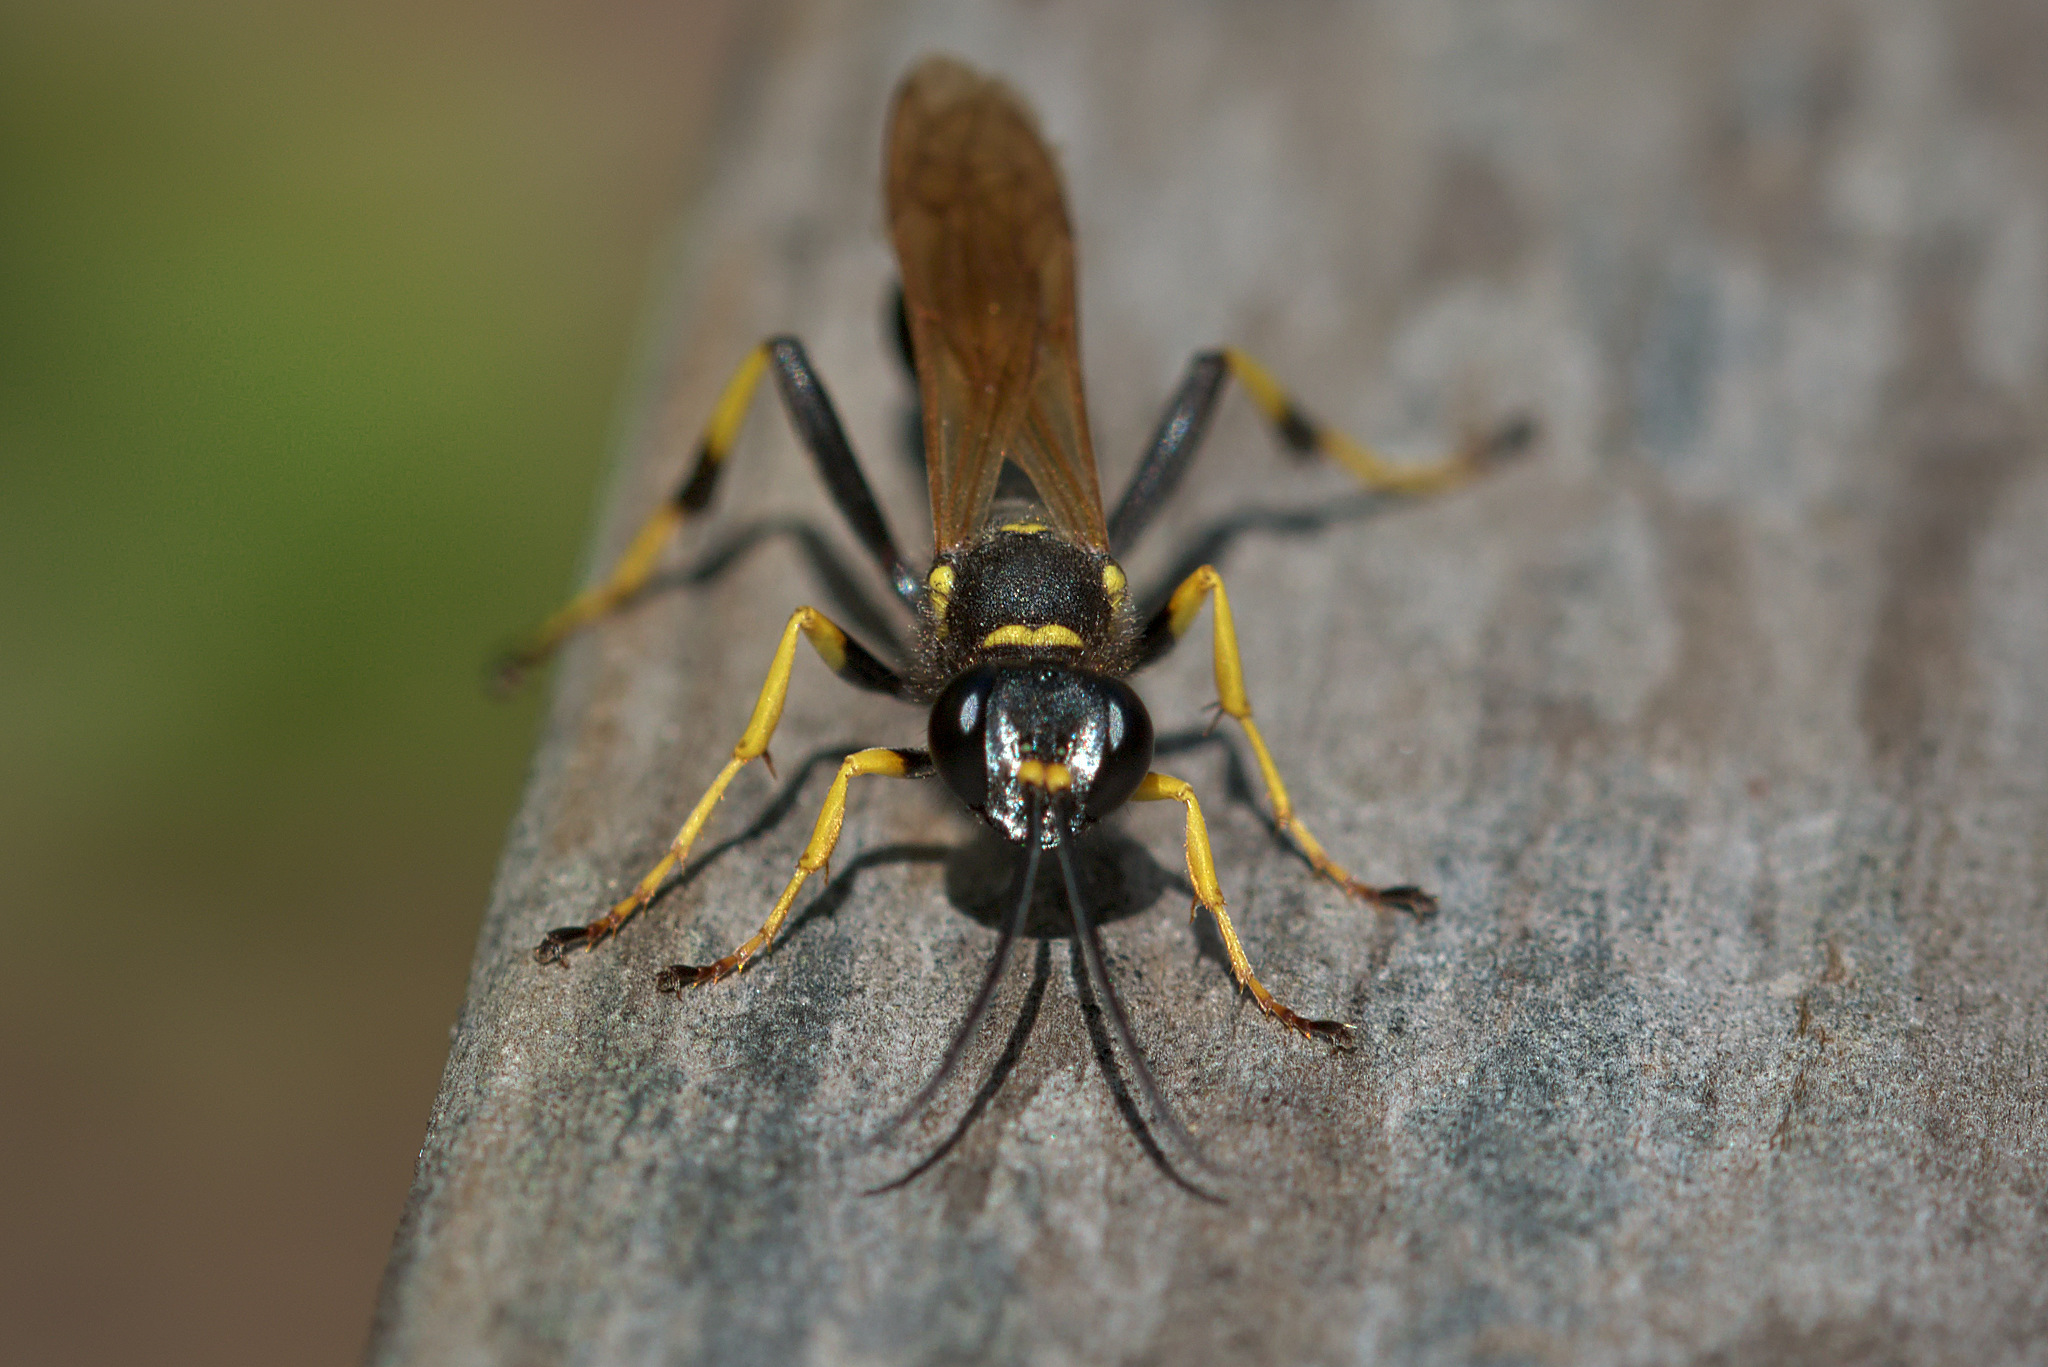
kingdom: Animalia
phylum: Arthropoda
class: Insecta
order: Hymenoptera
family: Sphecidae
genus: Sceliphron
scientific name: Sceliphron caementarium
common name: Mud dauber
